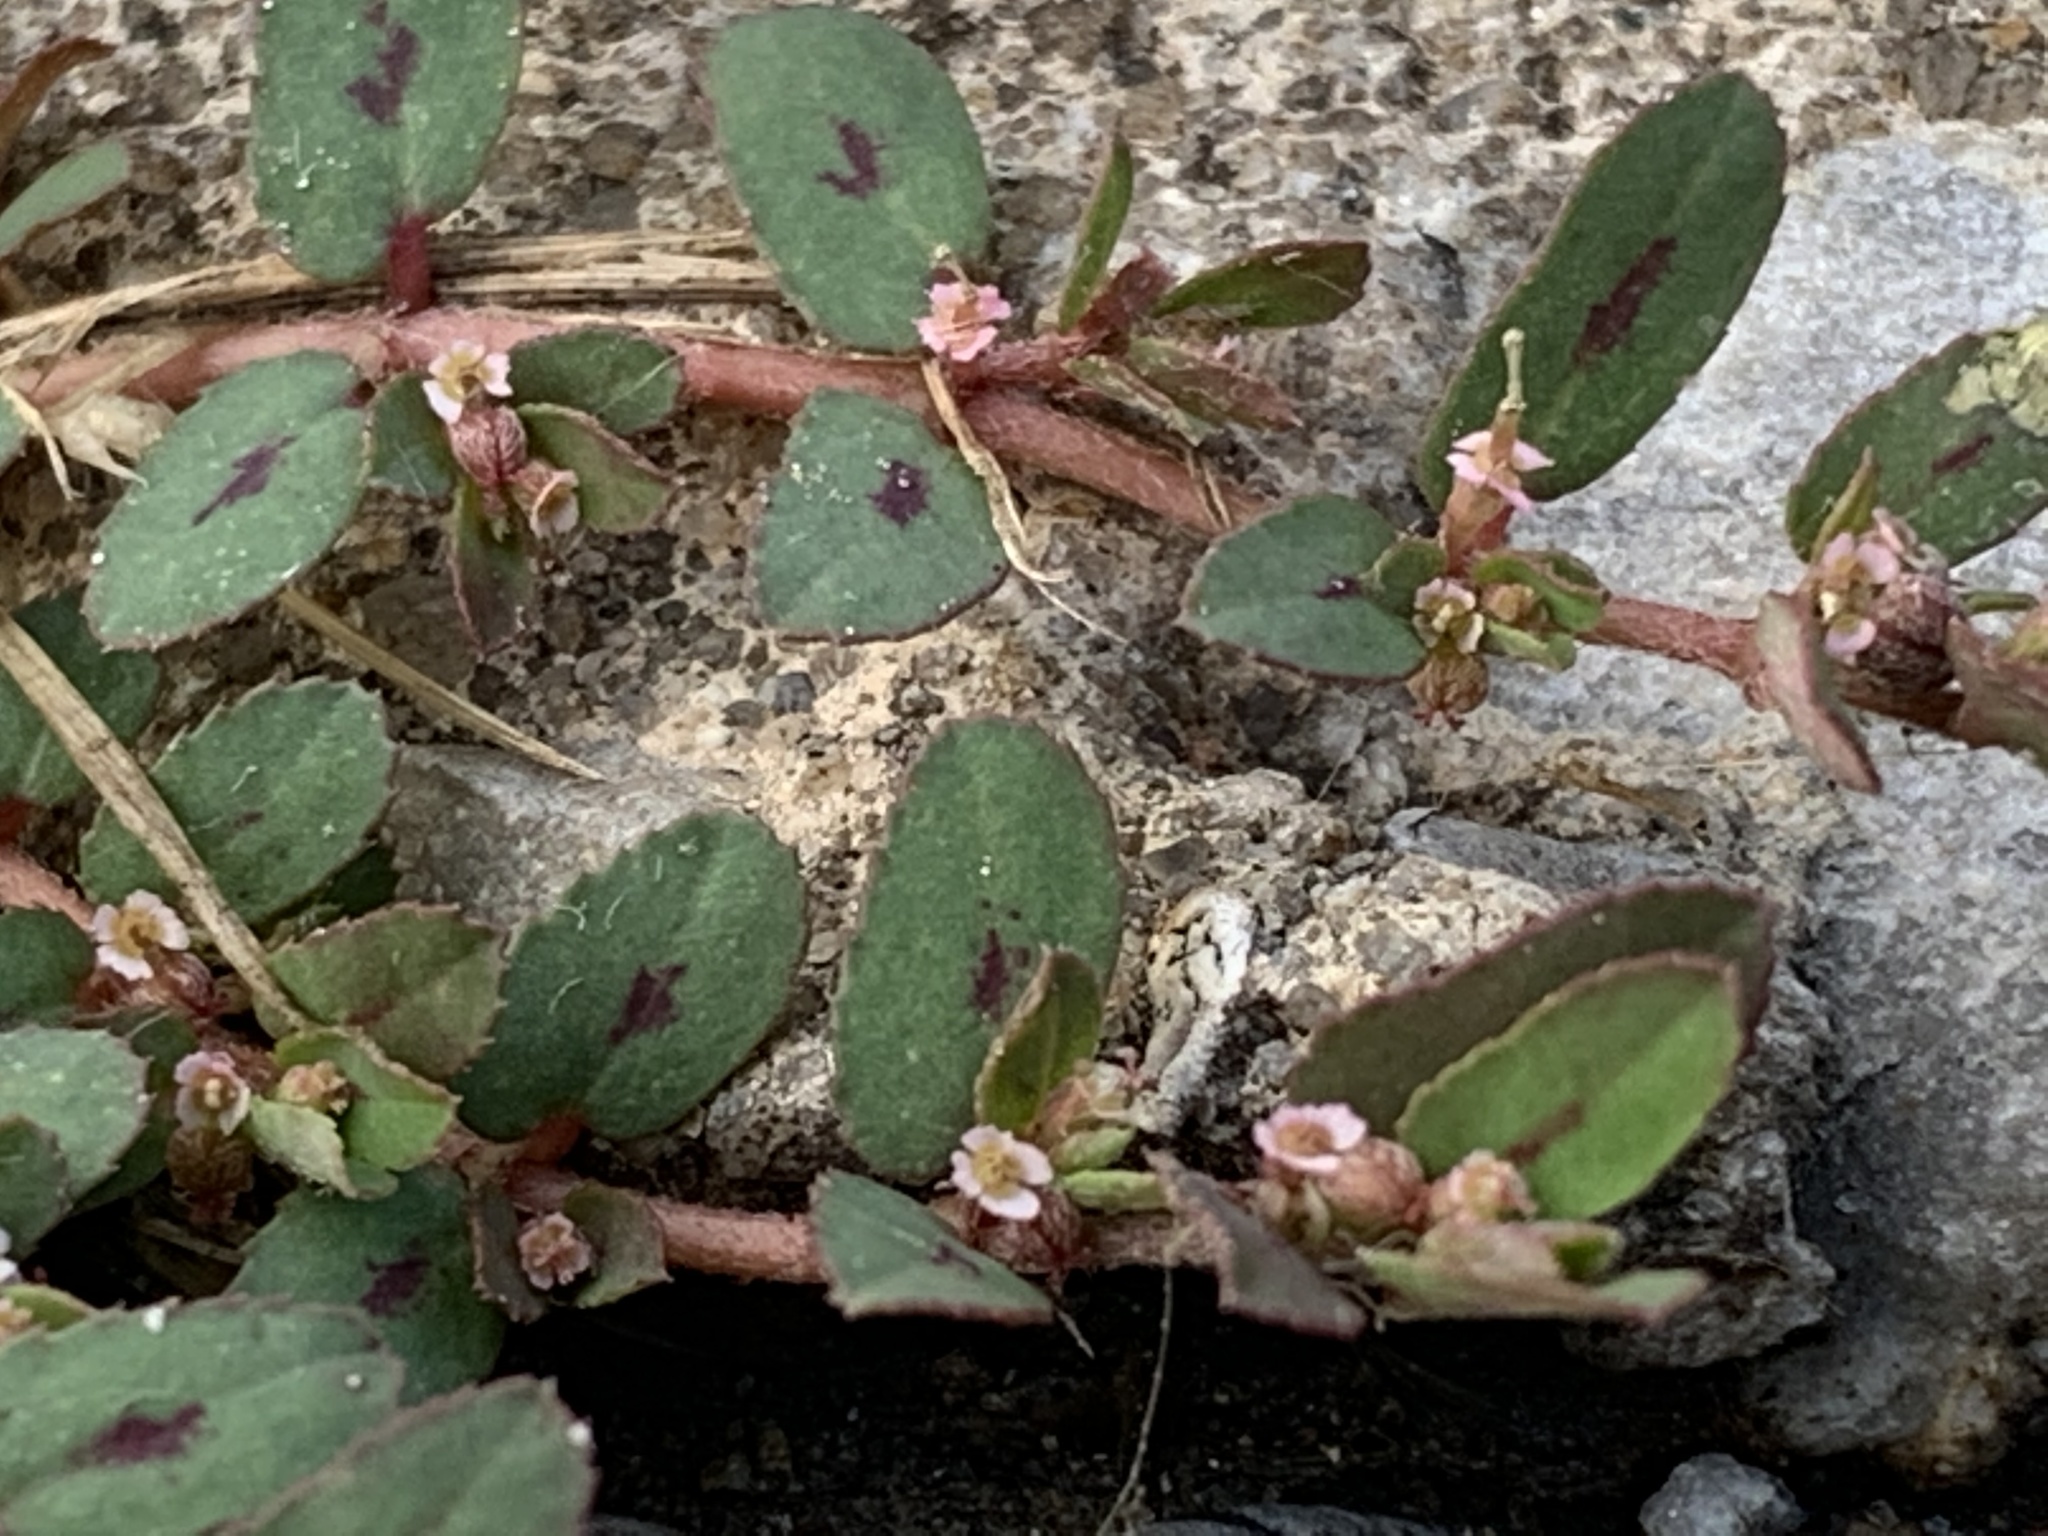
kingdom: Plantae
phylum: Tracheophyta
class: Magnoliopsida
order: Malpighiales
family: Euphorbiaceae
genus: Euphorbia
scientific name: Euphorbia maculata
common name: Spotted spurge
